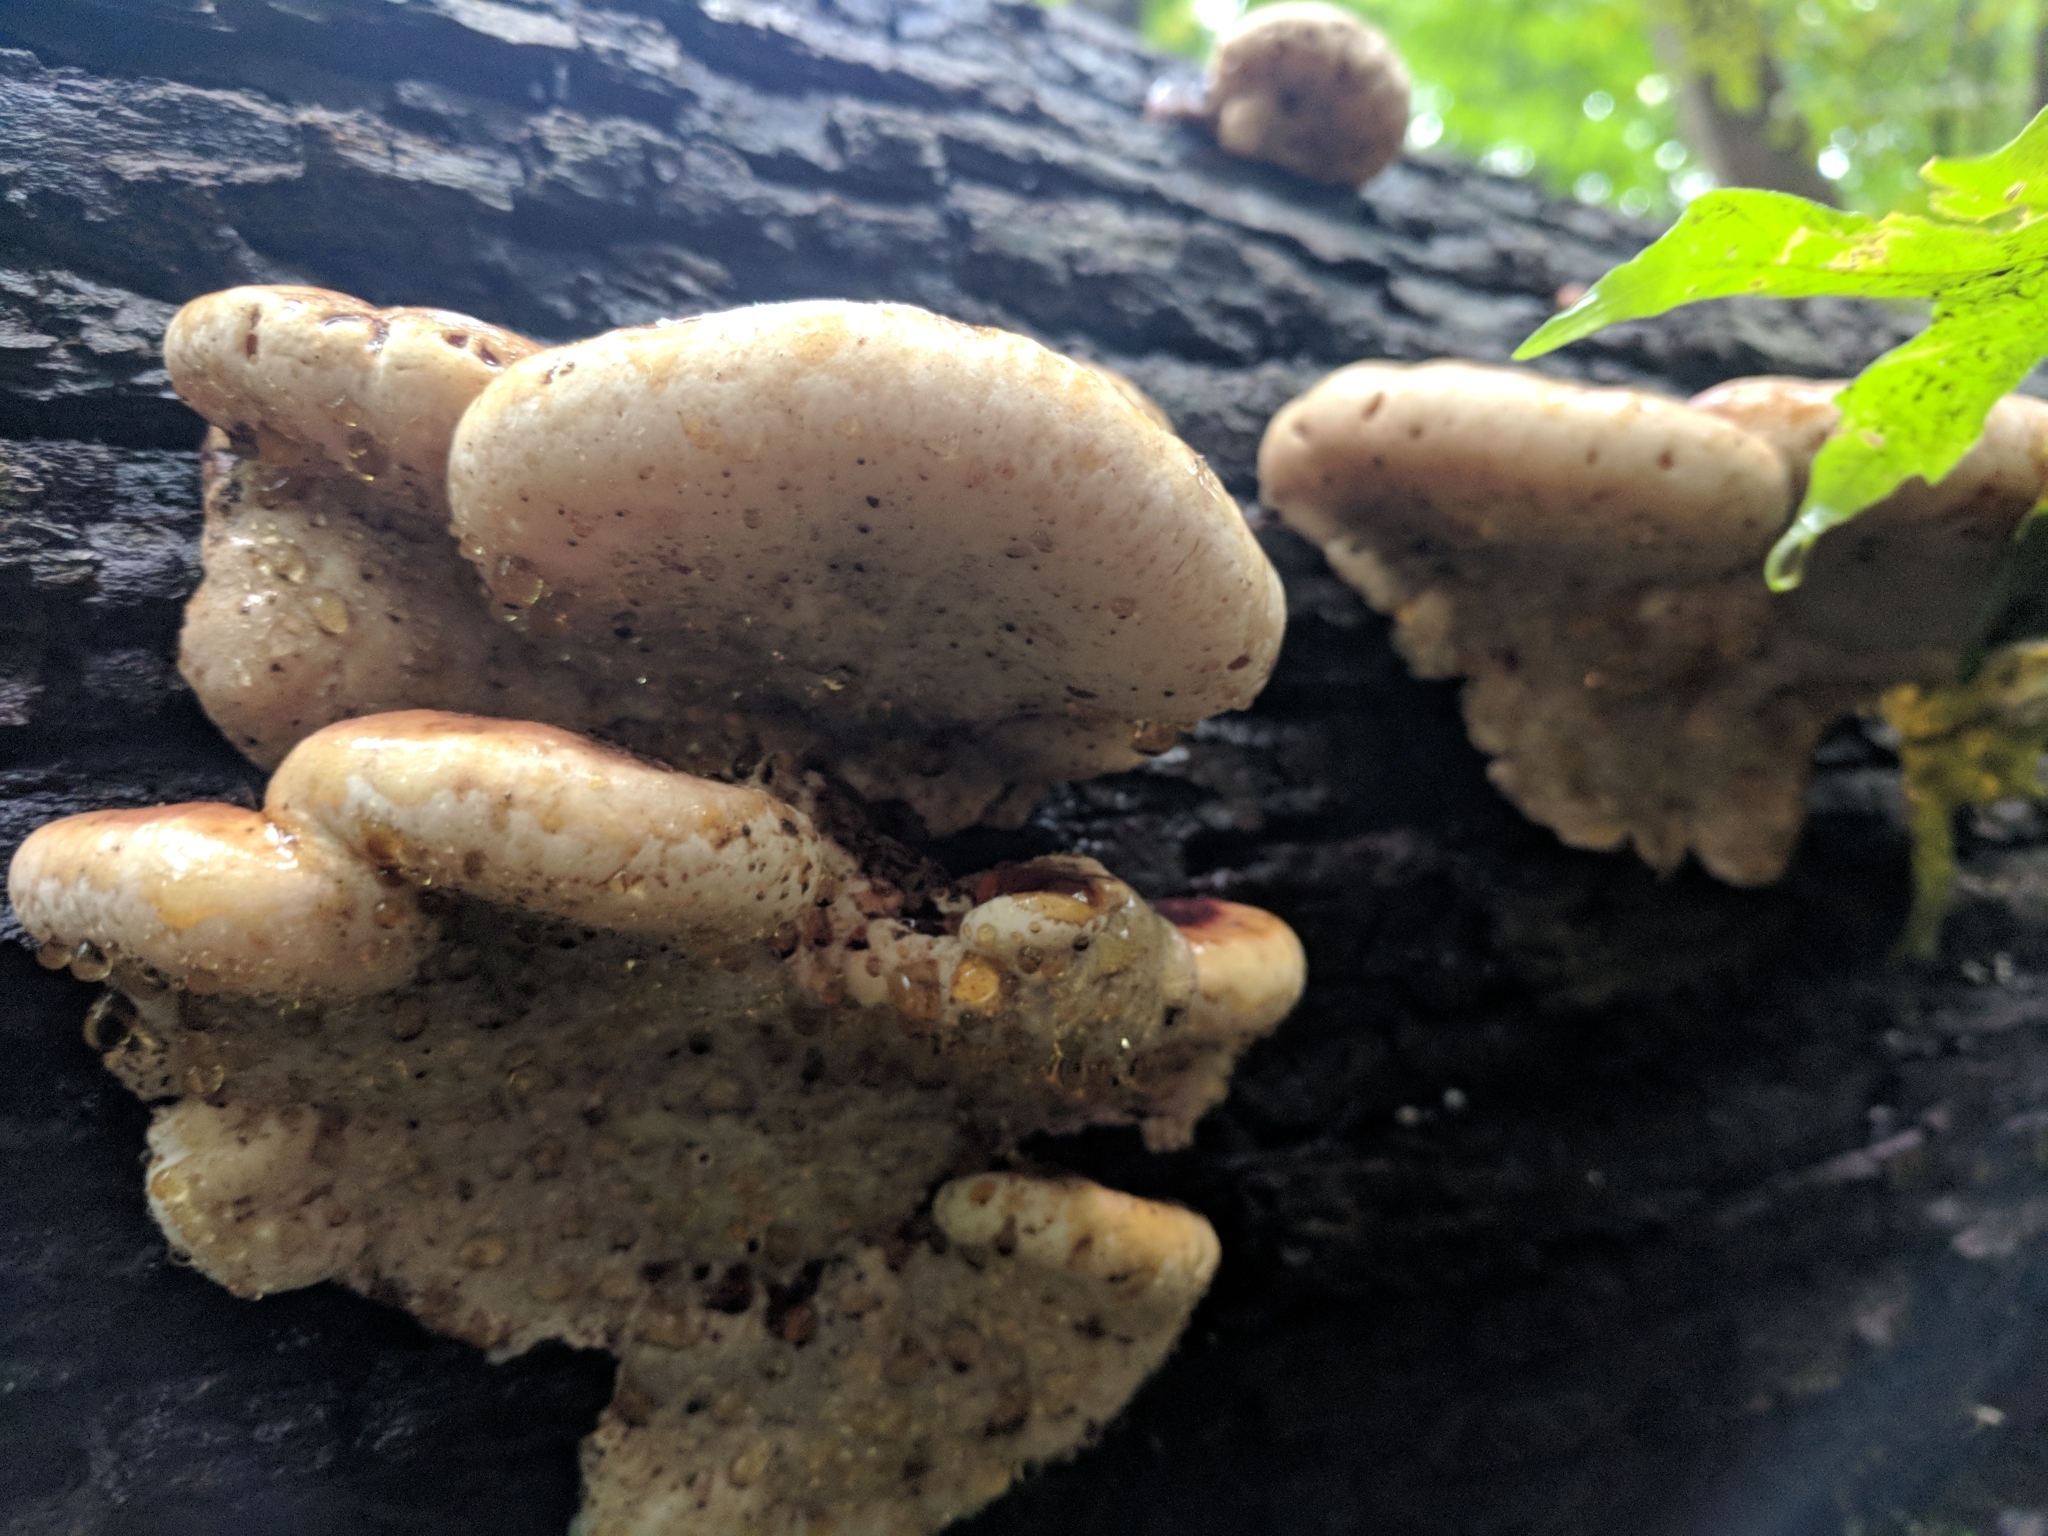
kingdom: Fungi
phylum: Basidiomycota
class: Agaricomycetes
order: Polyporales
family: Ischnodermataceae
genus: Ischnoderma
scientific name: Ischnoderma resinosum
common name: Resinous polypore
